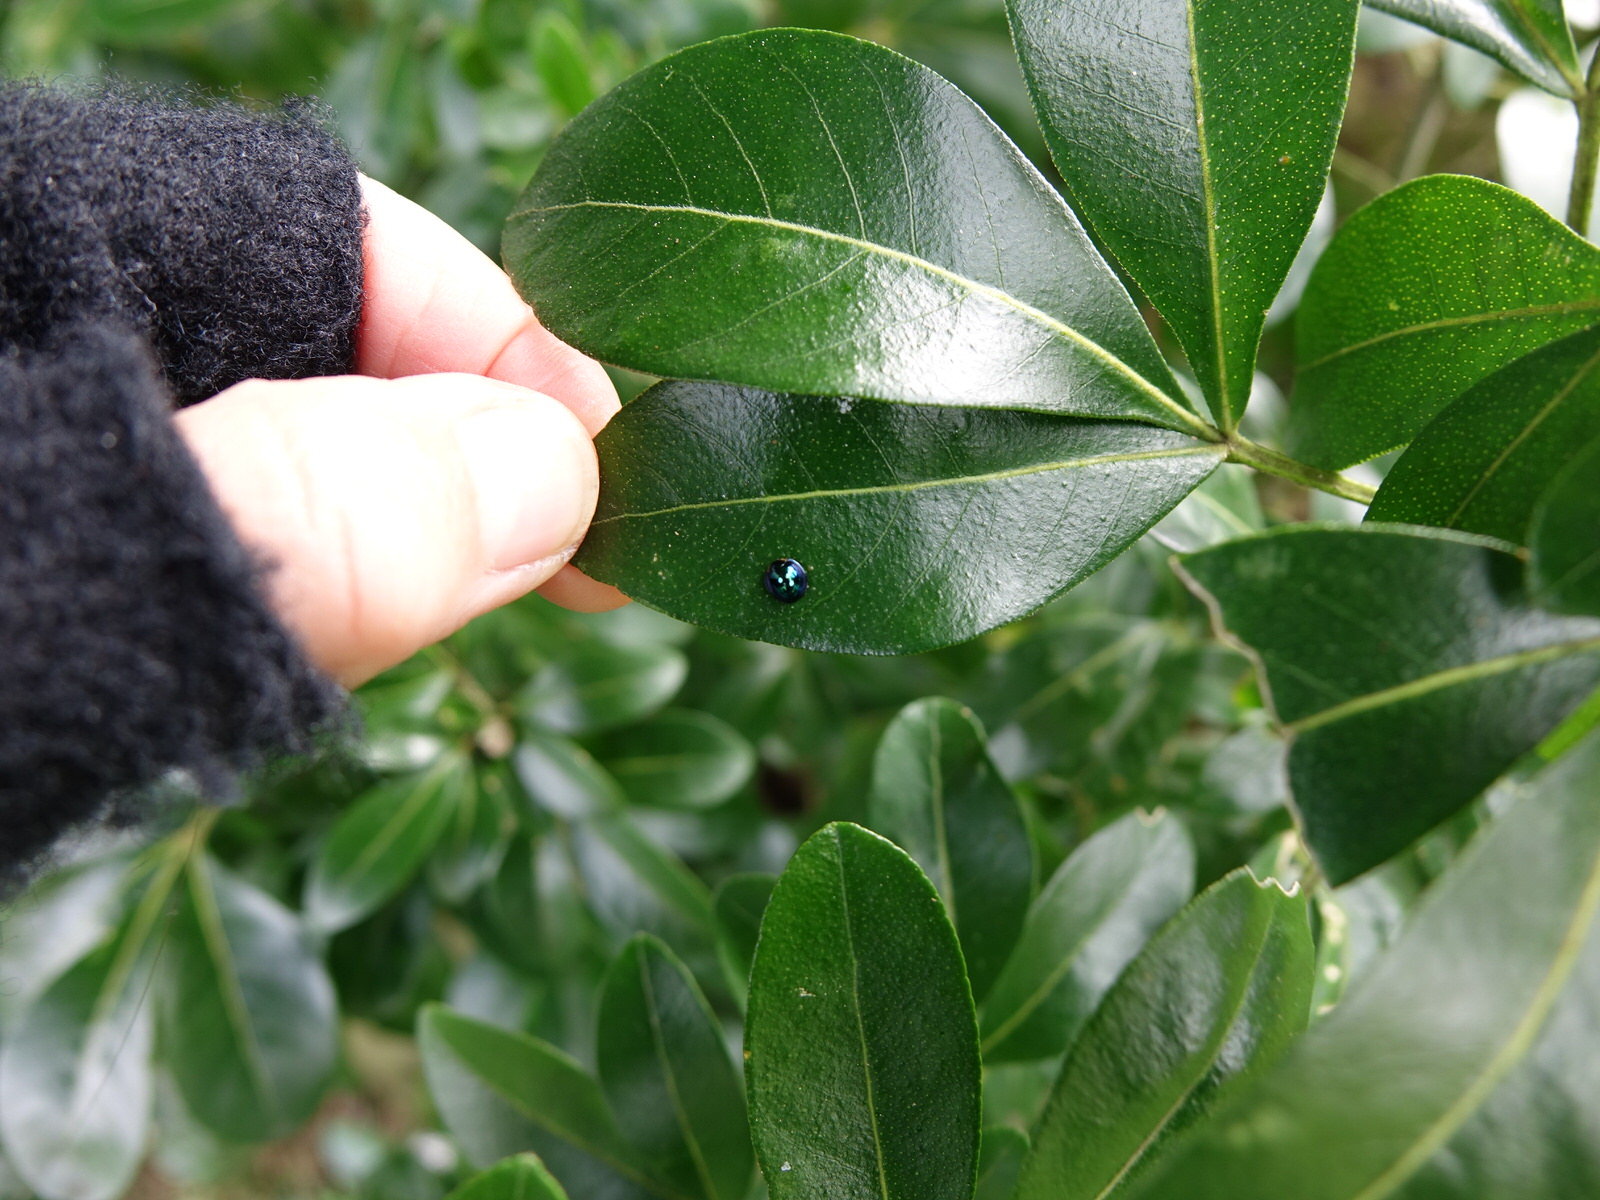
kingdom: Animalia
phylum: Arthropoda
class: Insecta
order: Coleoptera
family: Coccinellidae
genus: Halmus
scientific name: Halmus chalybeus
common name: Steel blue ladybird beetle
